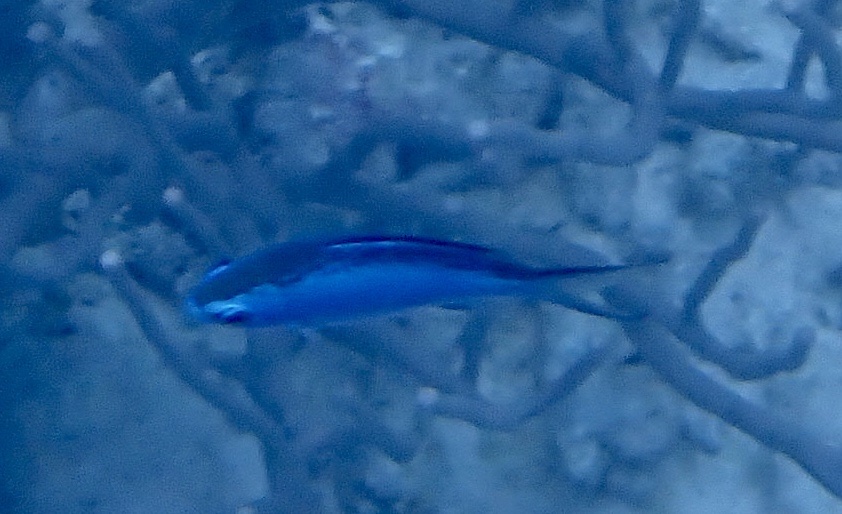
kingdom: Animalia
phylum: Chordata
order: Perciformes
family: Pomacentridae
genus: Chromis
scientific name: Chromis cyanea
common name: Blue chromis
